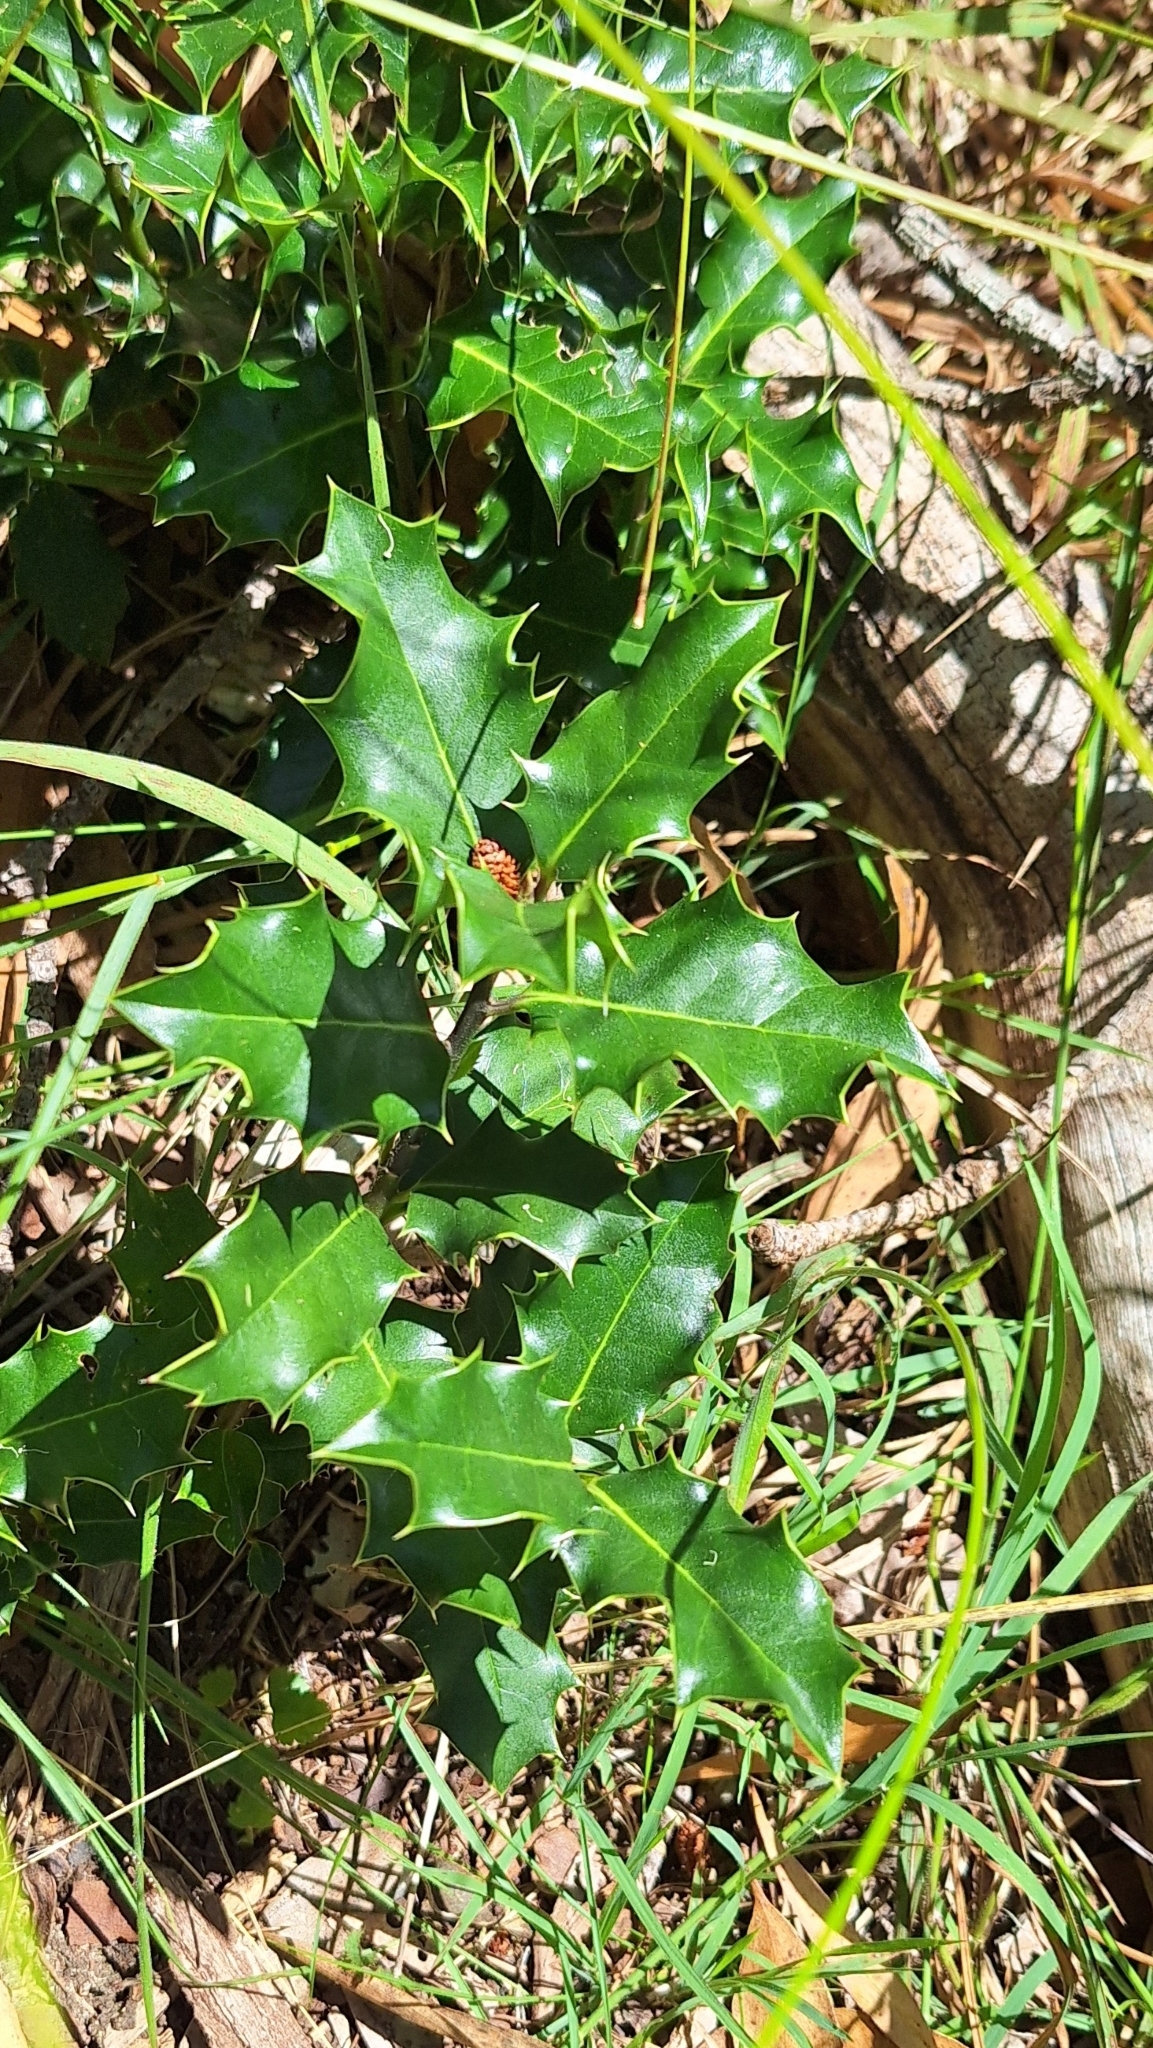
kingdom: Plantae
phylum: Tracheophyta
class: Magnoliopsida
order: Aquifoliales
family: Aquifoliaceae
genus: Ilex
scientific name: Ilex aquifolium
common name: English holly
